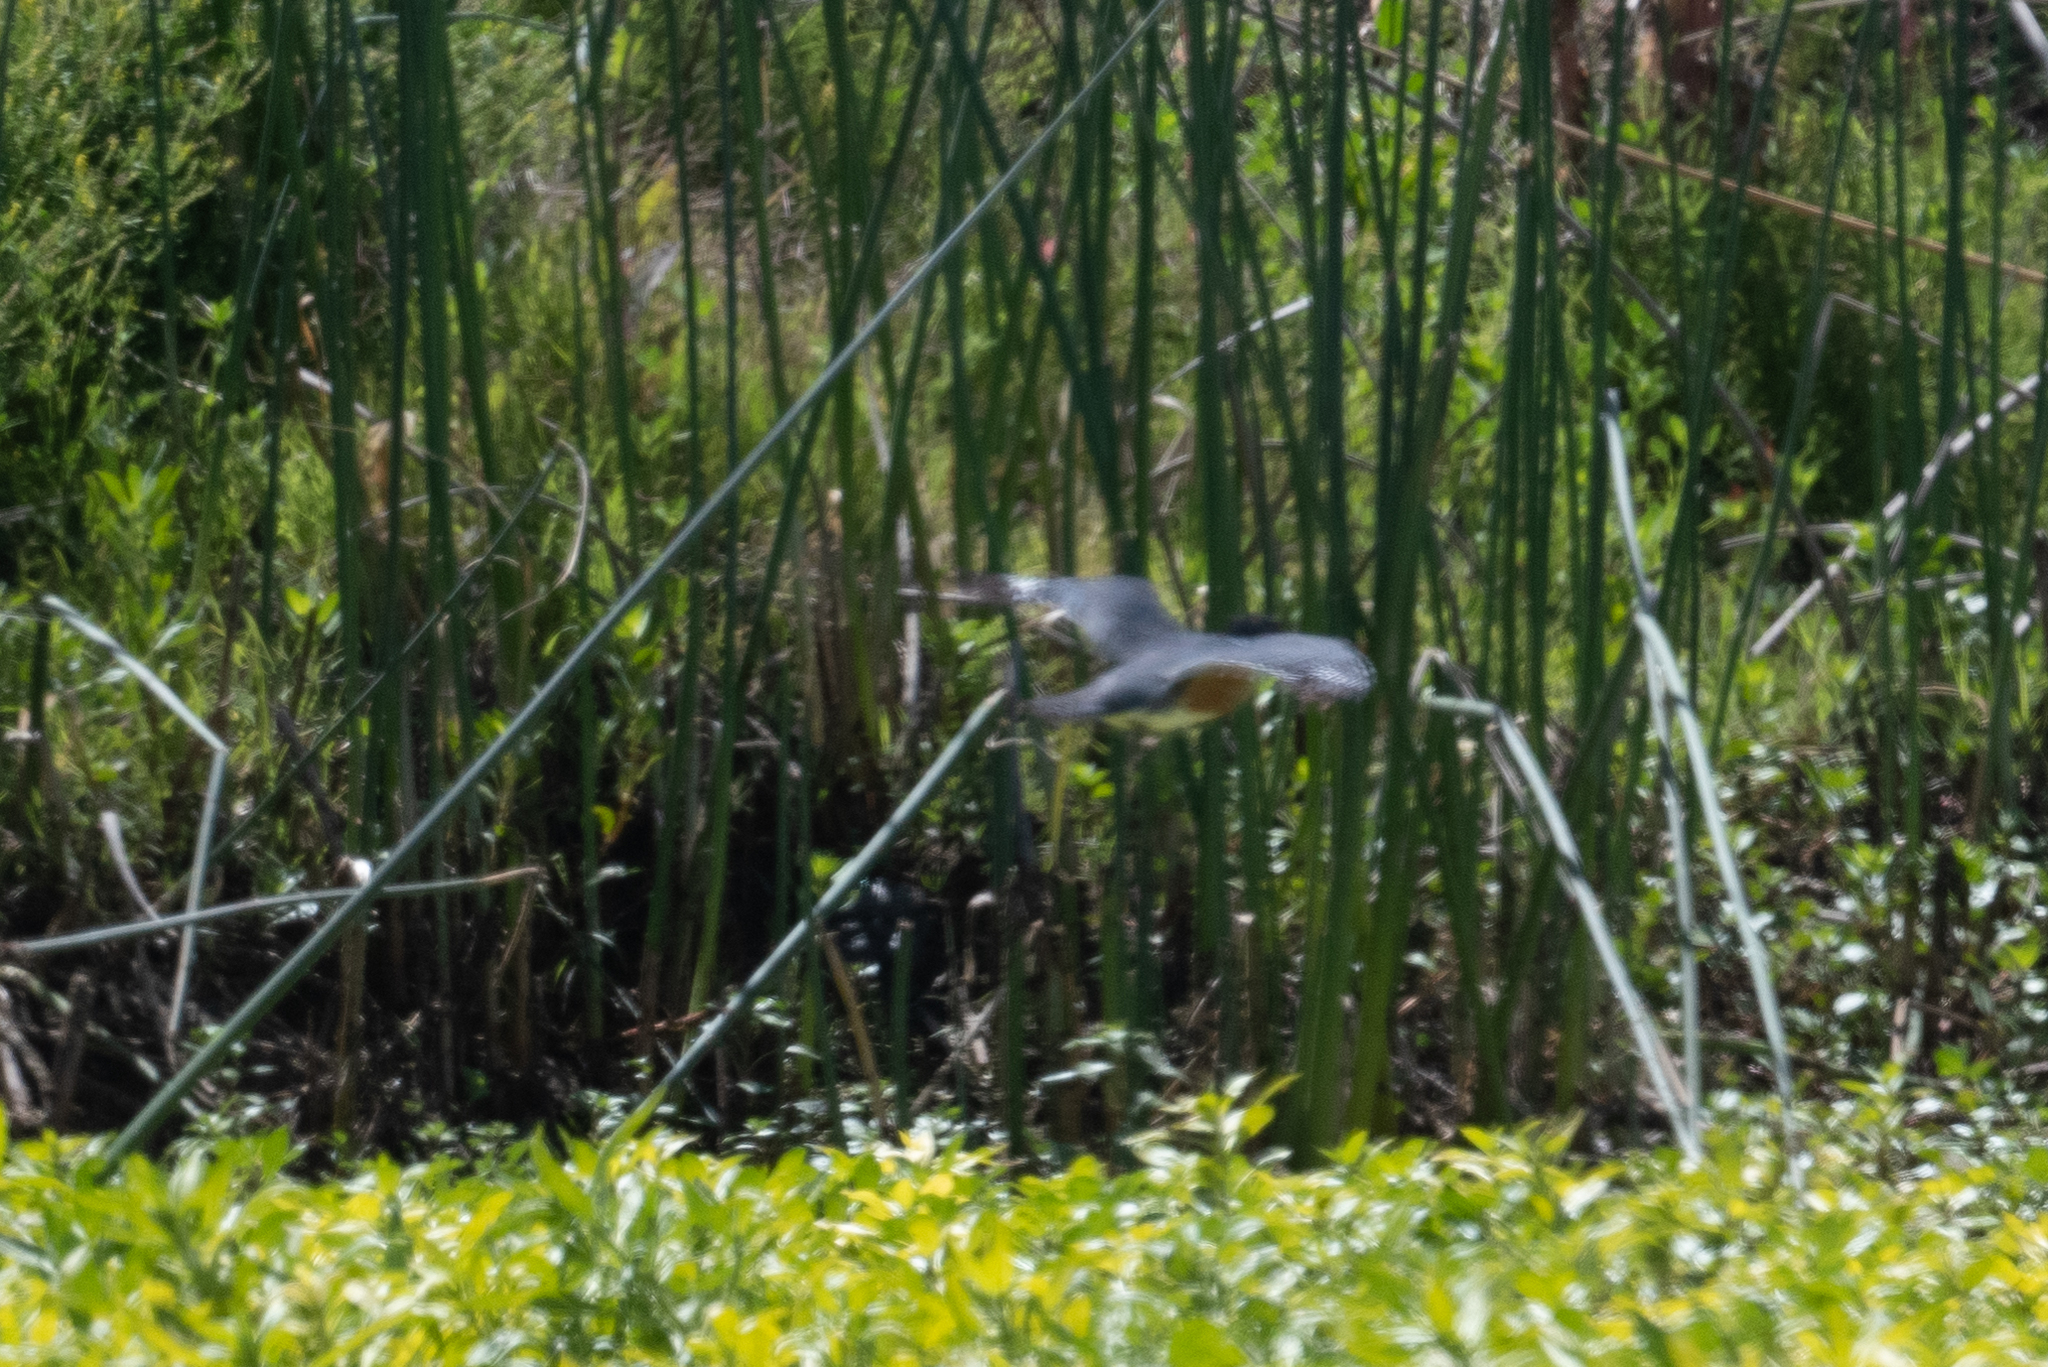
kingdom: Animalia
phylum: Chordata
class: Aves
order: Coraciiformes
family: Alcedinidae
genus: Megaceryle
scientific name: Megaceryle alcyon
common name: Belted kingfisher
